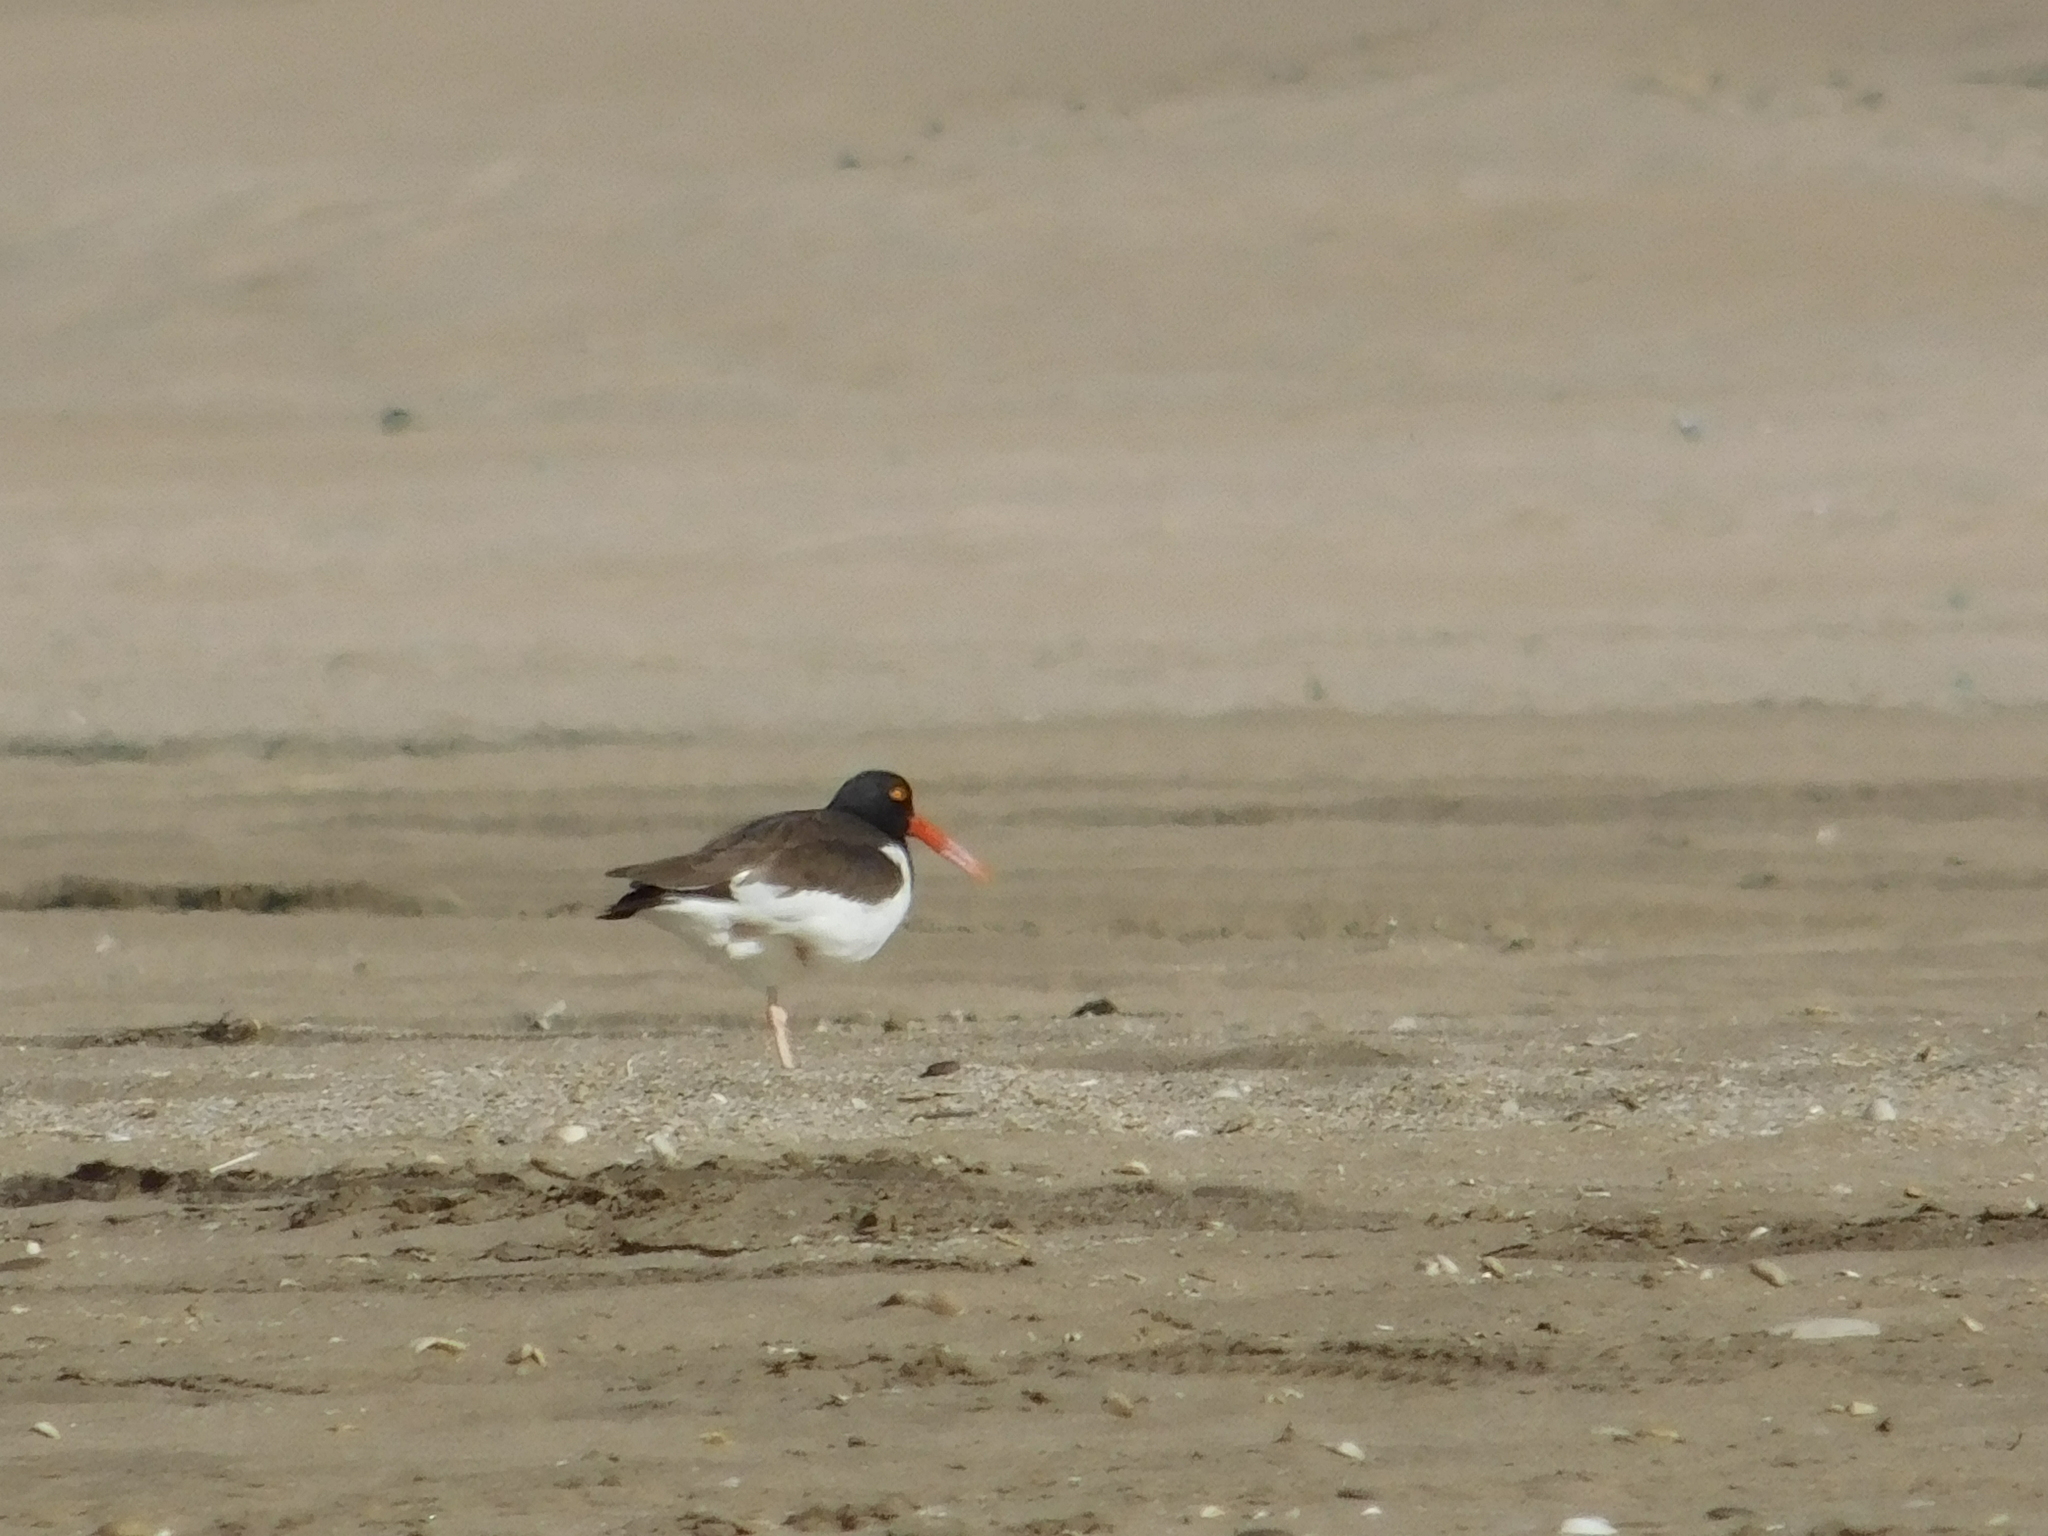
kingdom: Animalia
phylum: Chordata
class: Aves
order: Charadriiformes
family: Haematopodidae
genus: Haematopus
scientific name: Haematopus palliatus
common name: American oystercatcher
